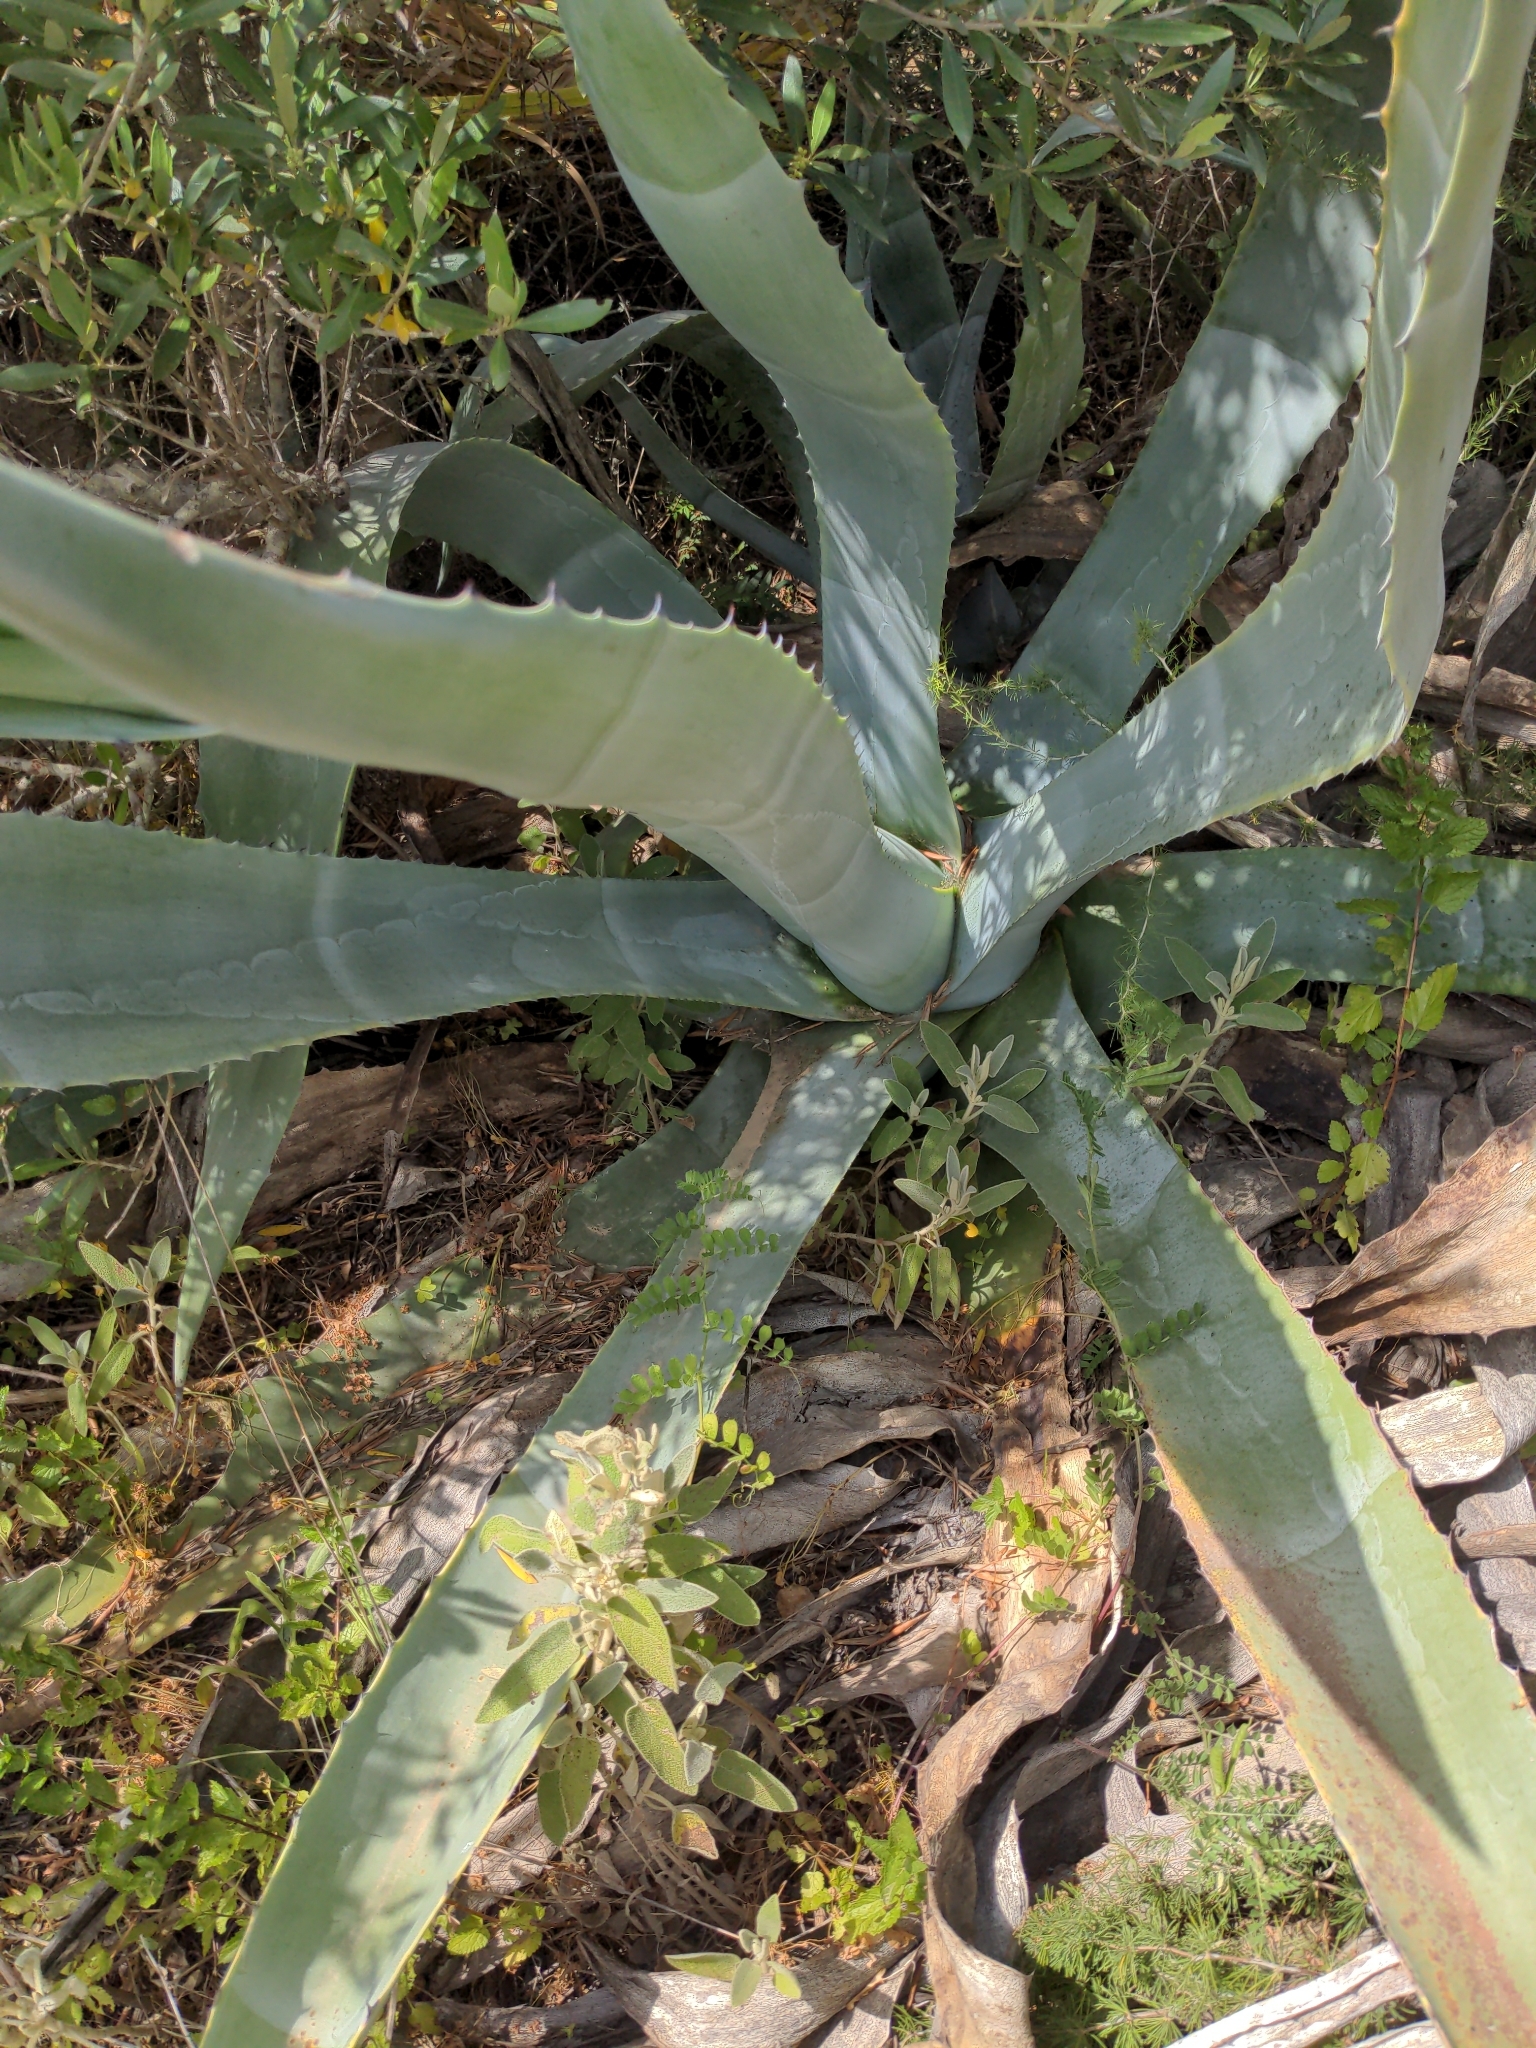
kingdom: Plantae
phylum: Tracheophyta
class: Liliopsida
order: Asparagales
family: Asparagaceae
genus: Agave
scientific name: Agave americana
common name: Centuryplant
